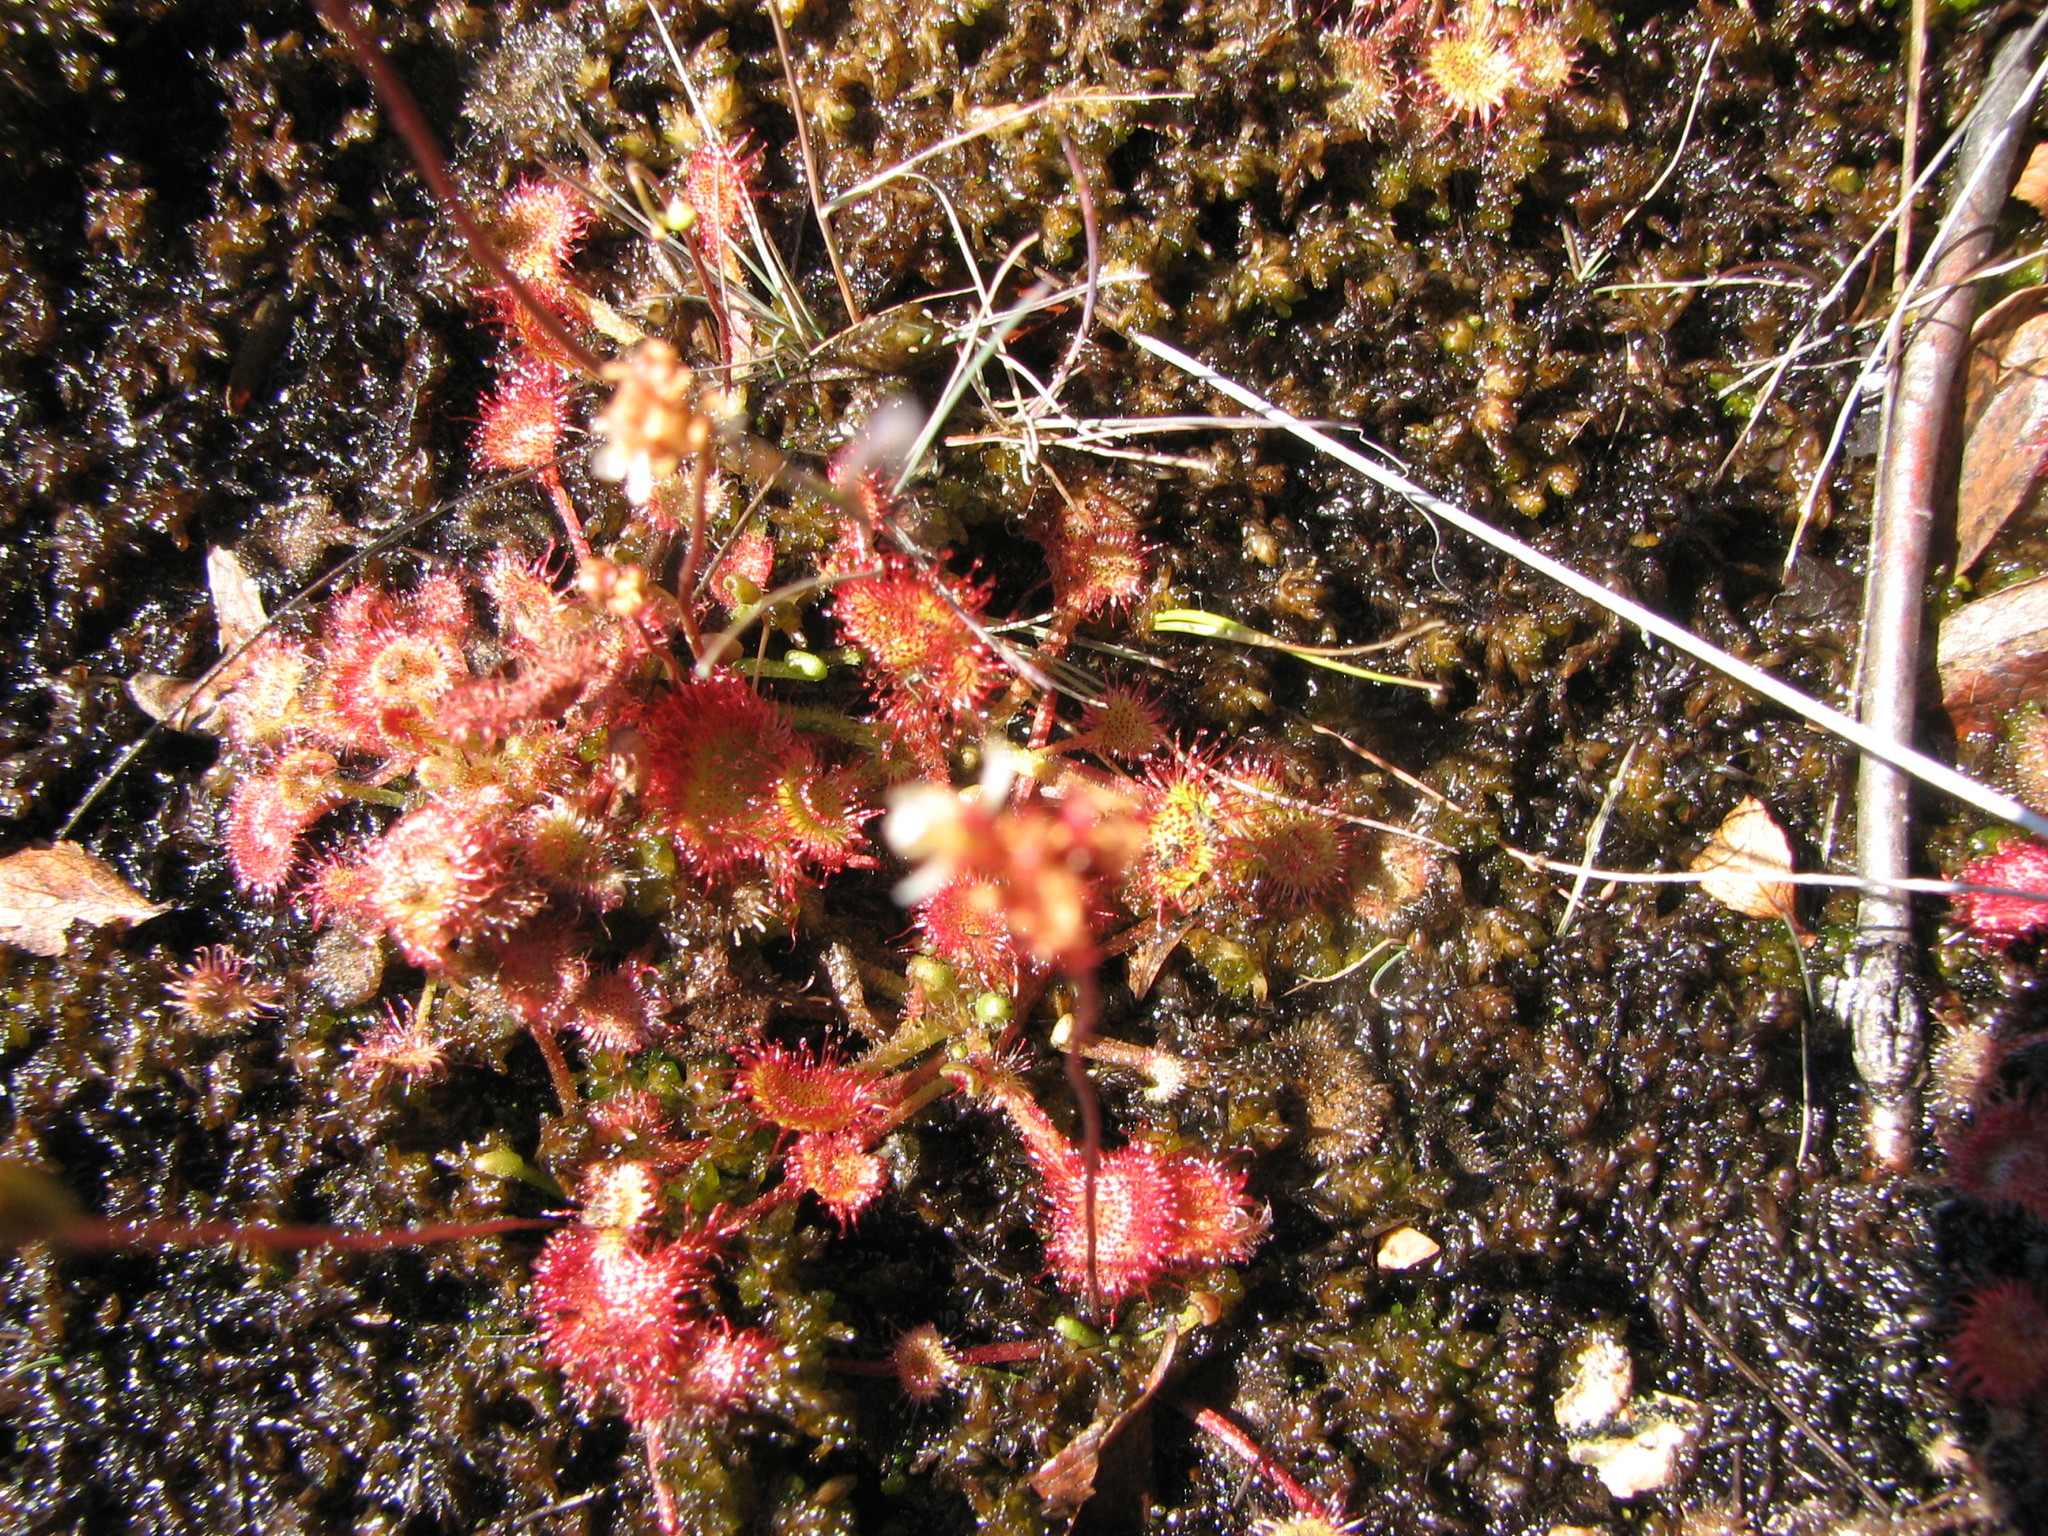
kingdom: Plantae
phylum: Tracheophyta
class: Magnoliopsida
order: Caryophyllales
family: Droseraceae
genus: Drosera
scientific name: Drosera rotundifolia
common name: Round-leaved sundew
